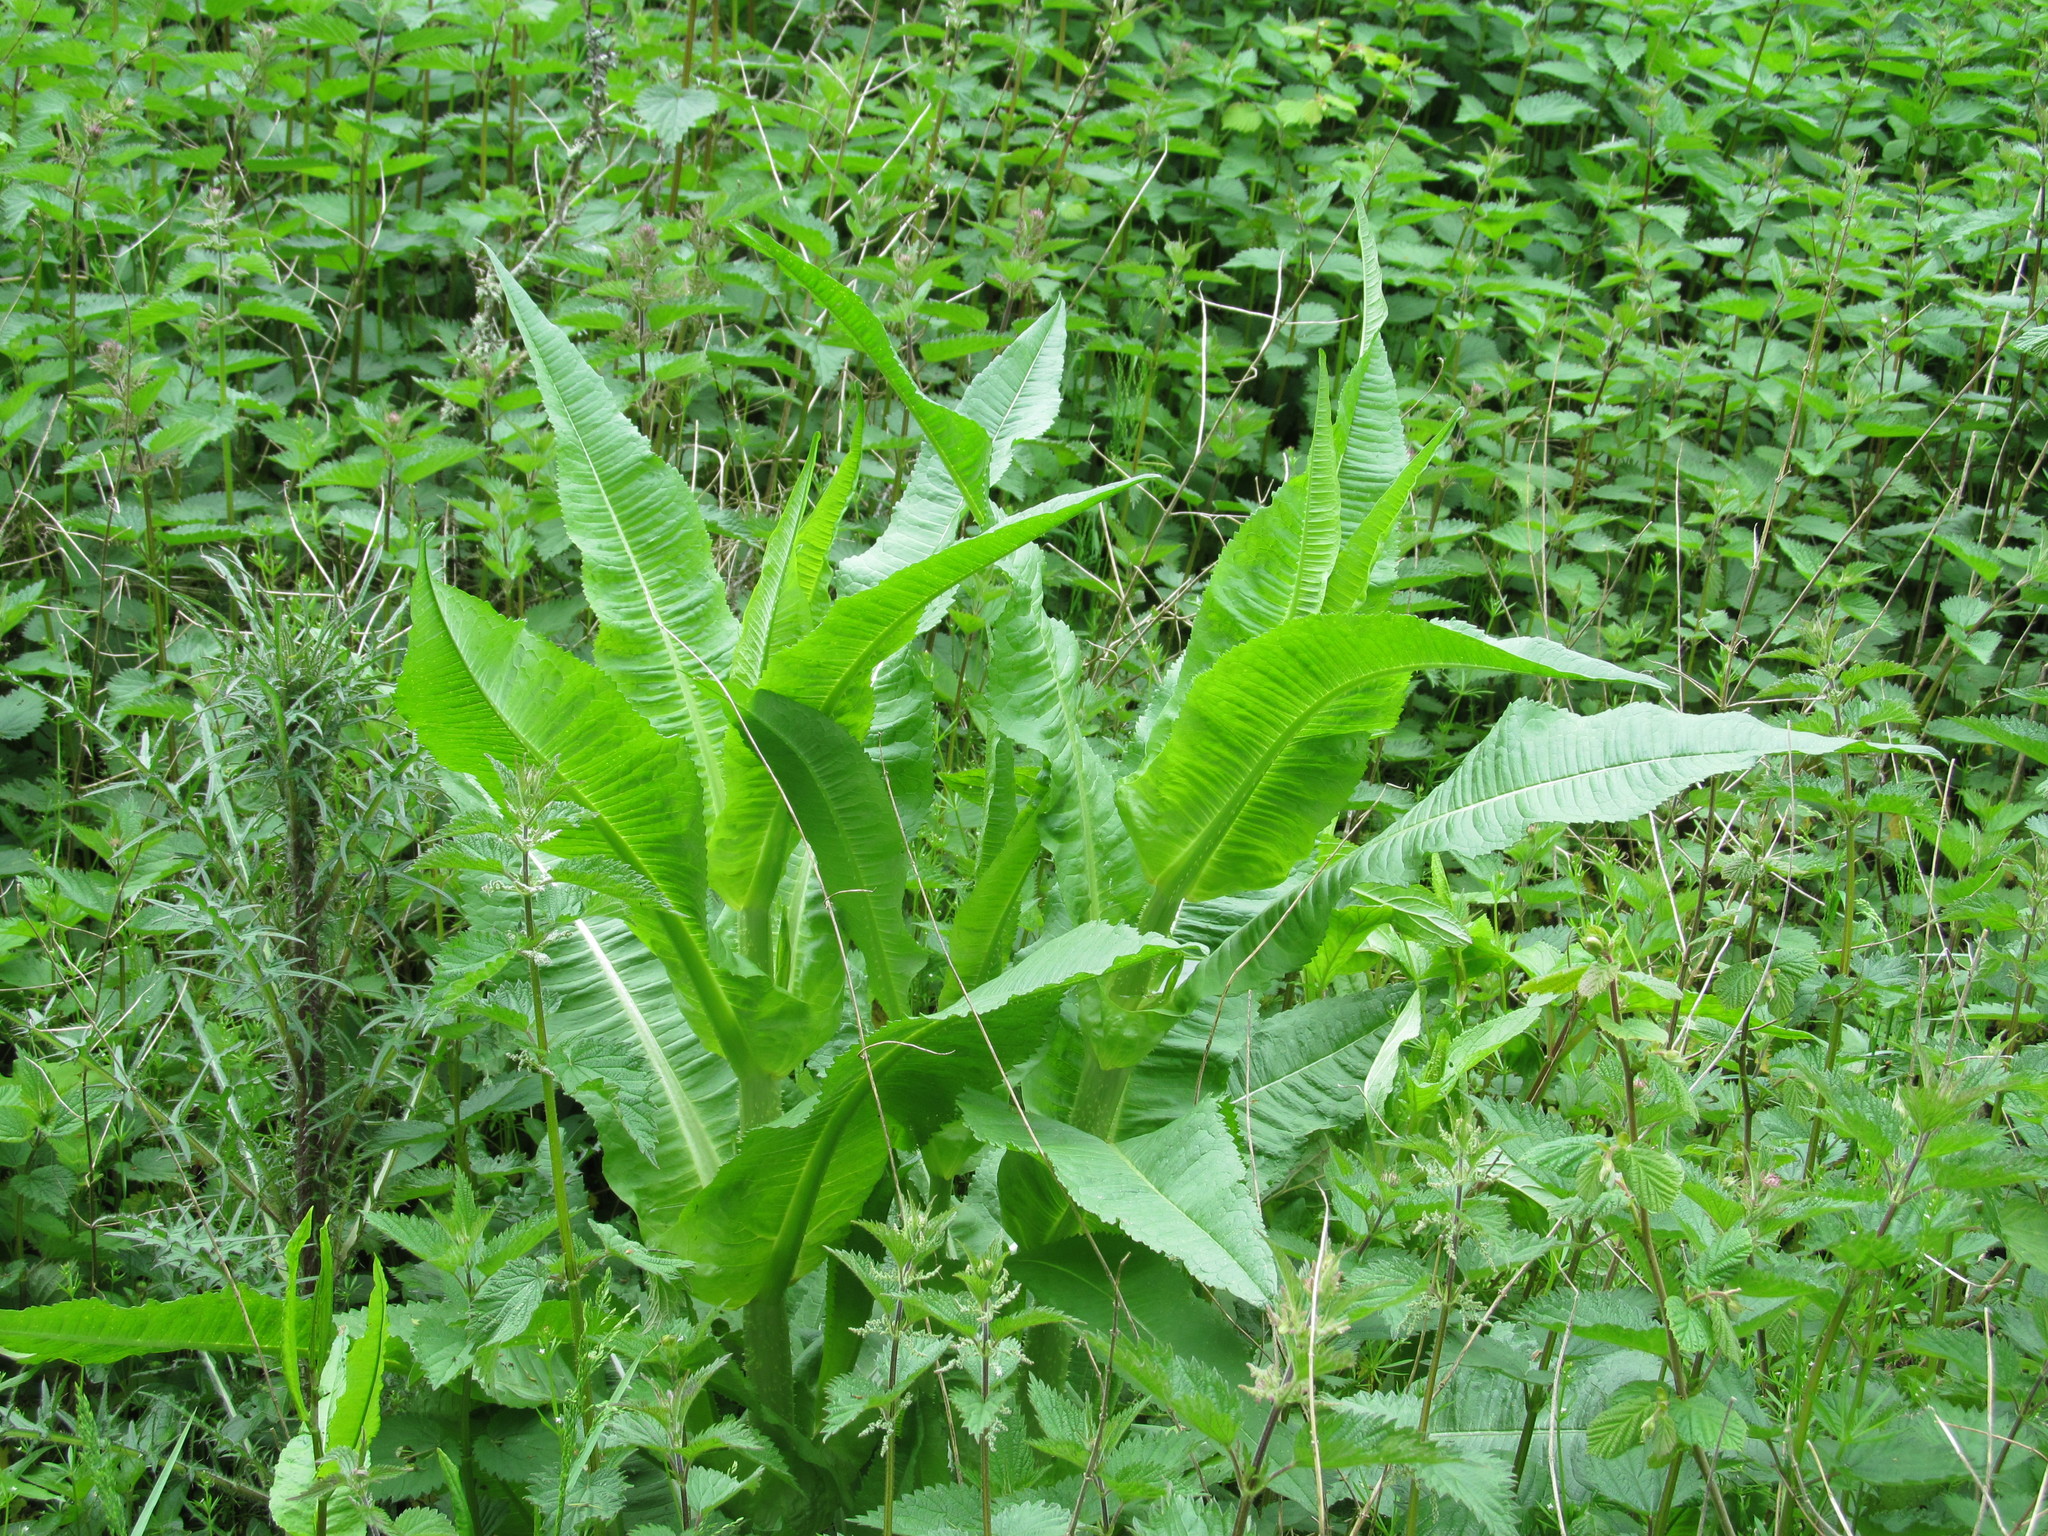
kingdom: Plantae
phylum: Tracheophyta
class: Magnoliopsida
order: Dipsacales
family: Caprifoliaceae
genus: Dipsacus
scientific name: Dipsacus fullonum
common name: Teasel
